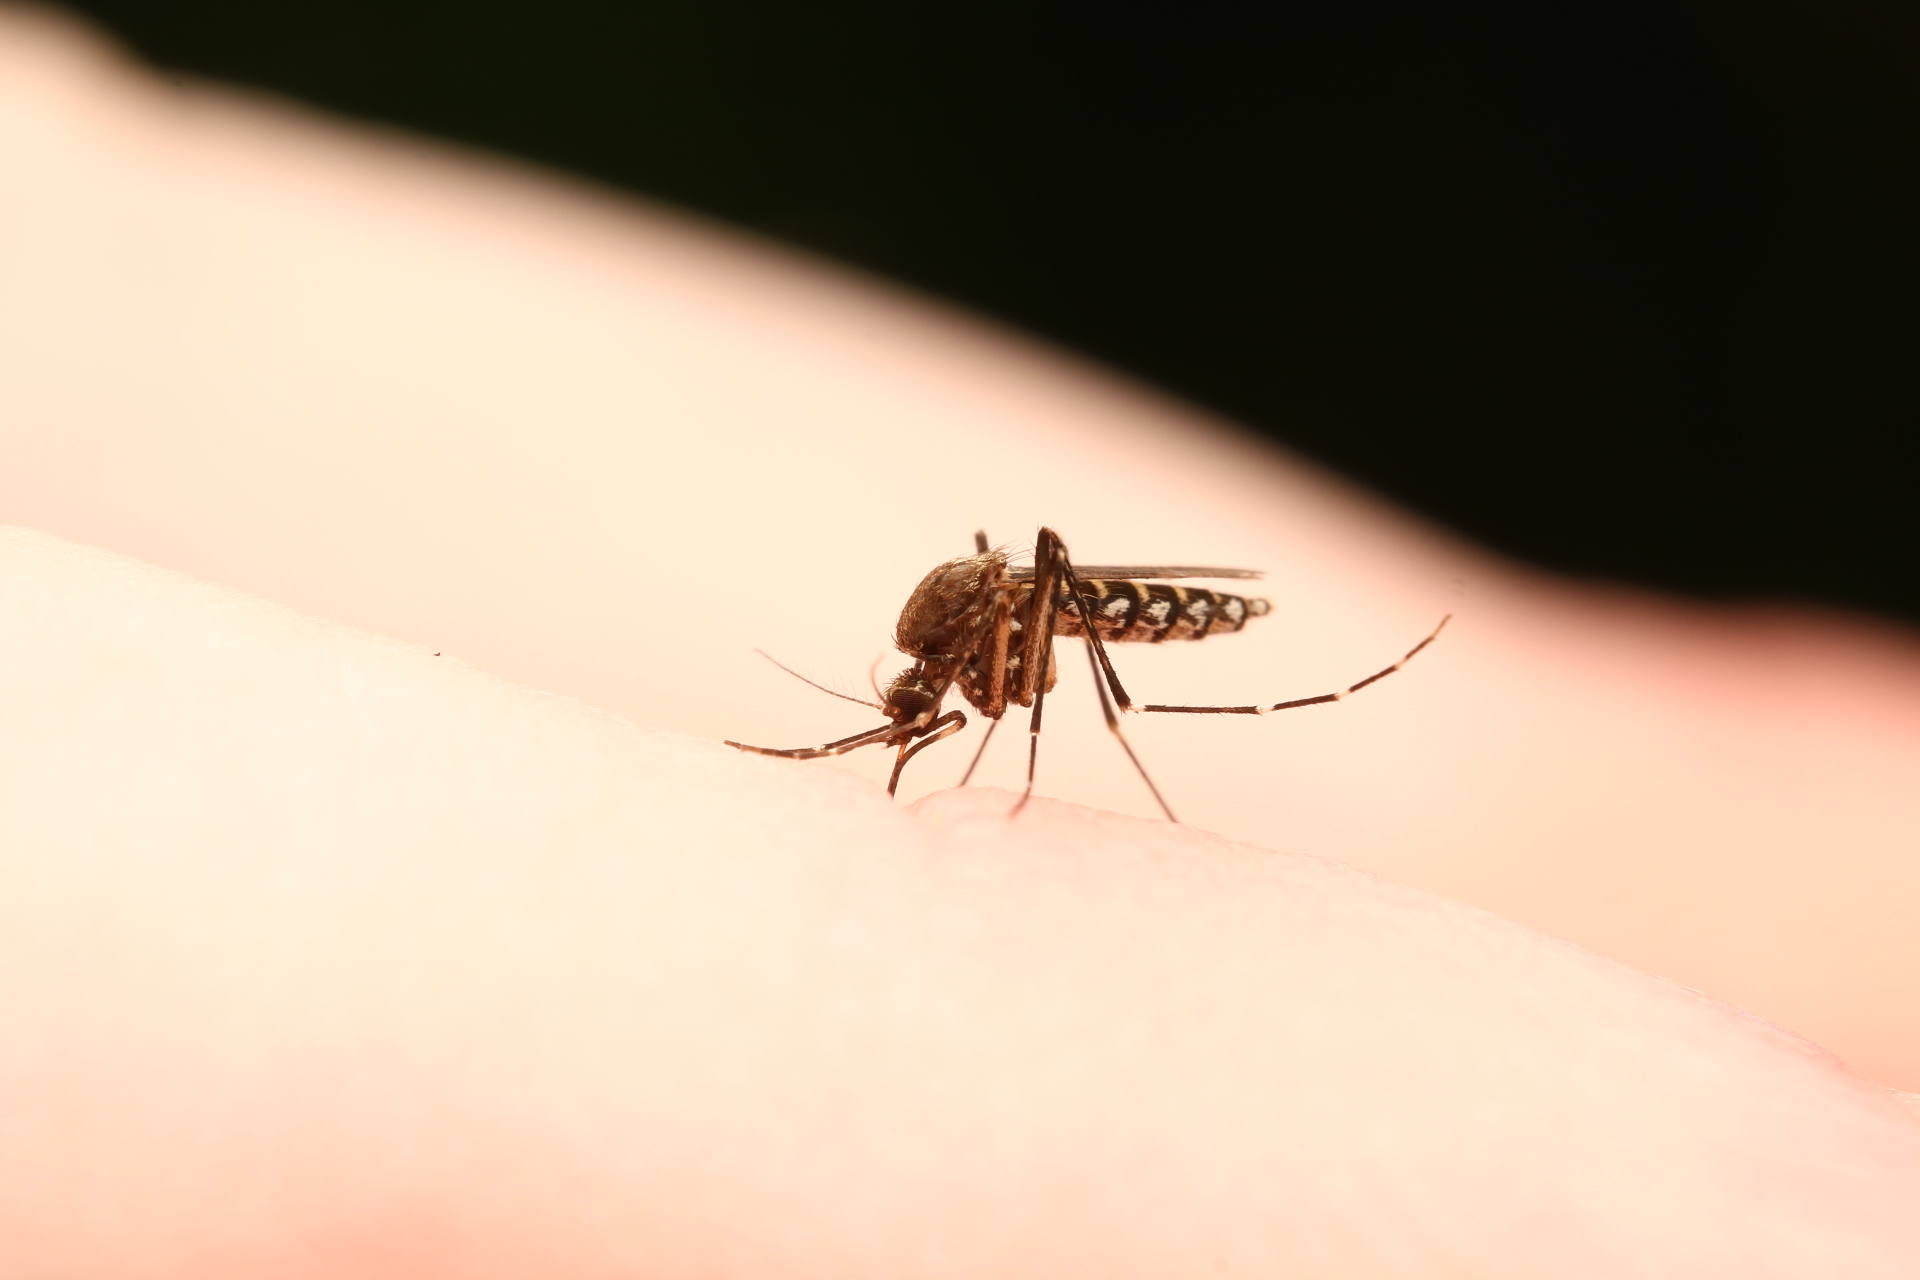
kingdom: Animalia
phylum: Arthropoda
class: Insecta
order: Diptera
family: Culicidae
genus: Aedes
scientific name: Aedes taeniorhynchus
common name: Black salt marsh mosquito
